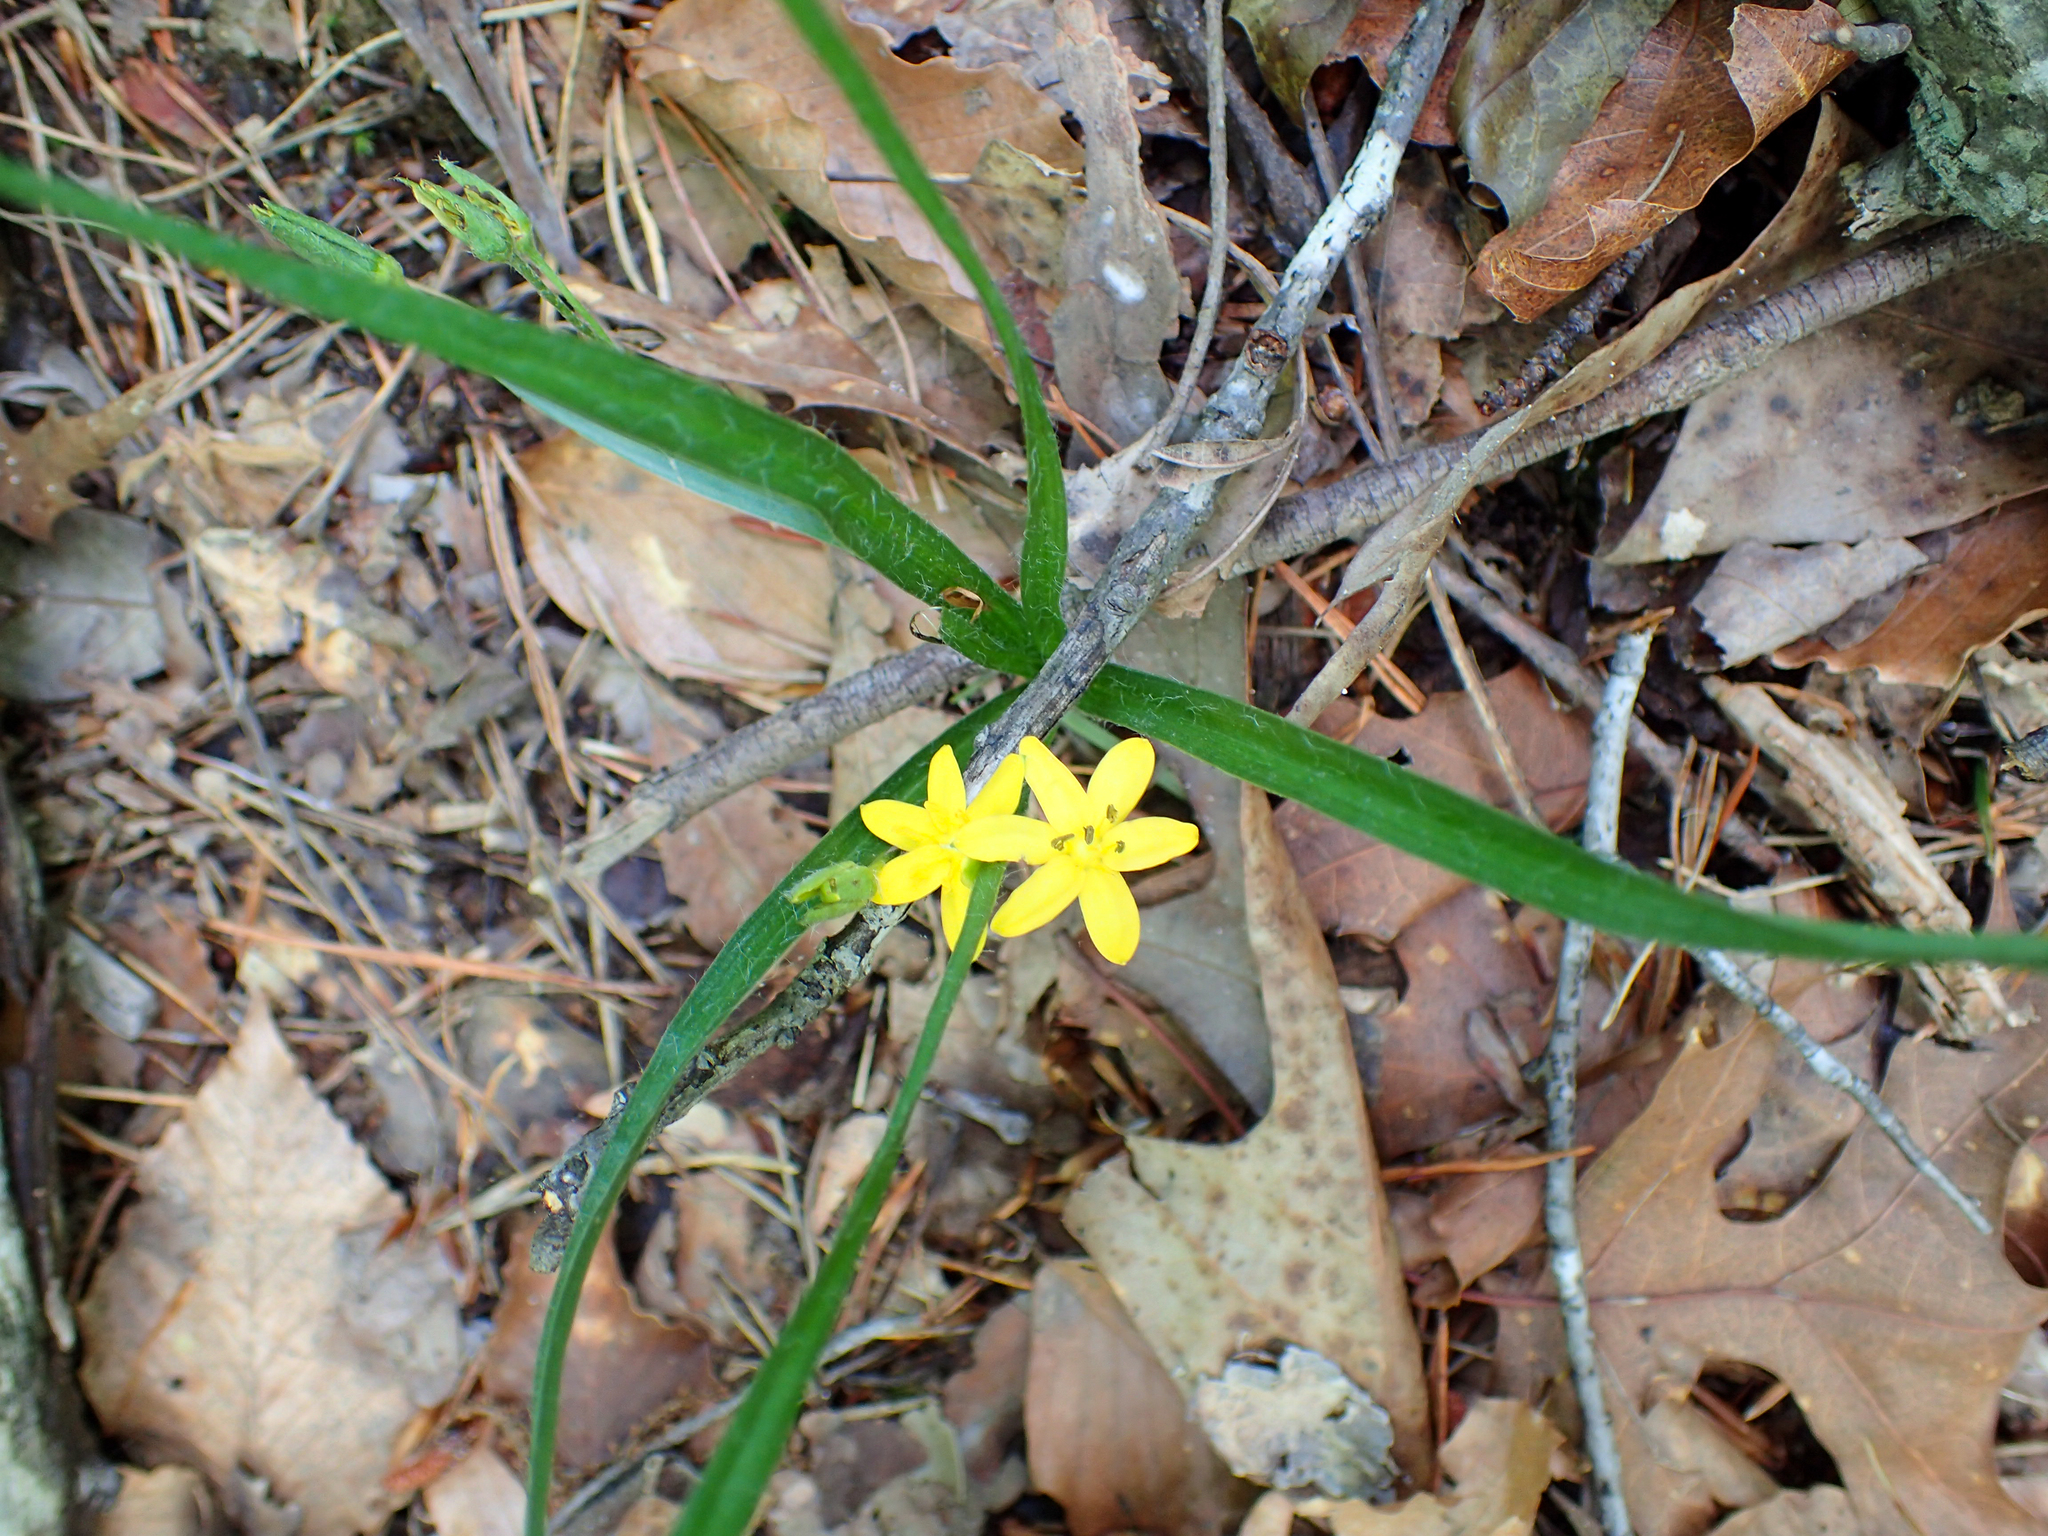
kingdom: Plantae
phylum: Tracheophyta
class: Liliopsida
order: Asparagales
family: Hypoxidaceae
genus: Hypoxis
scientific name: Hypoxis hirsuta
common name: Common goldstar
